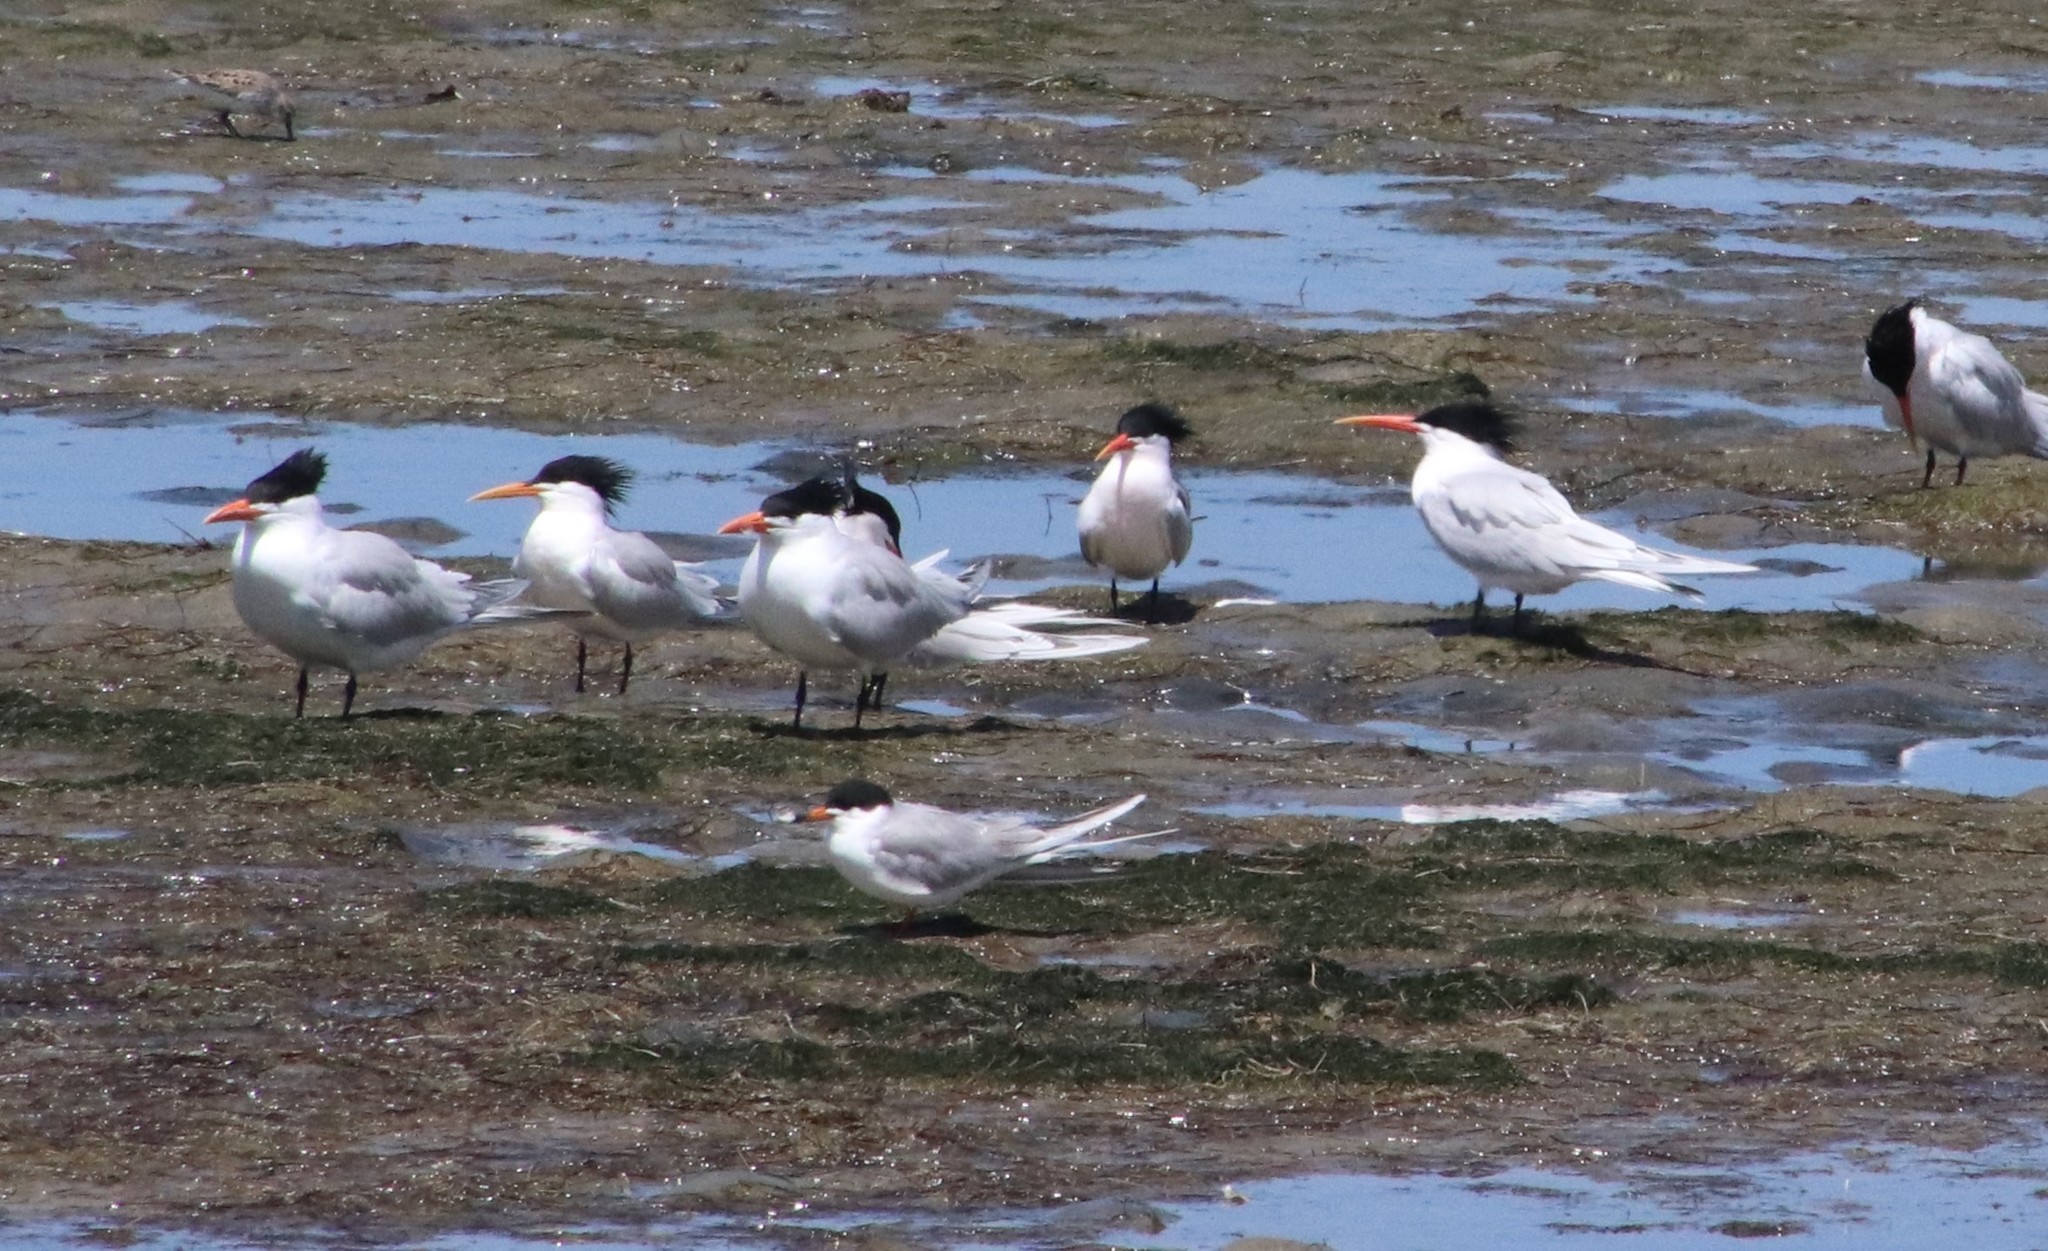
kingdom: Animalia
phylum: Chordata
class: Aves
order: Charadriiformes
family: Laridae
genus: Thalasseus
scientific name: Thalasseus elegans
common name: Elegant tern
